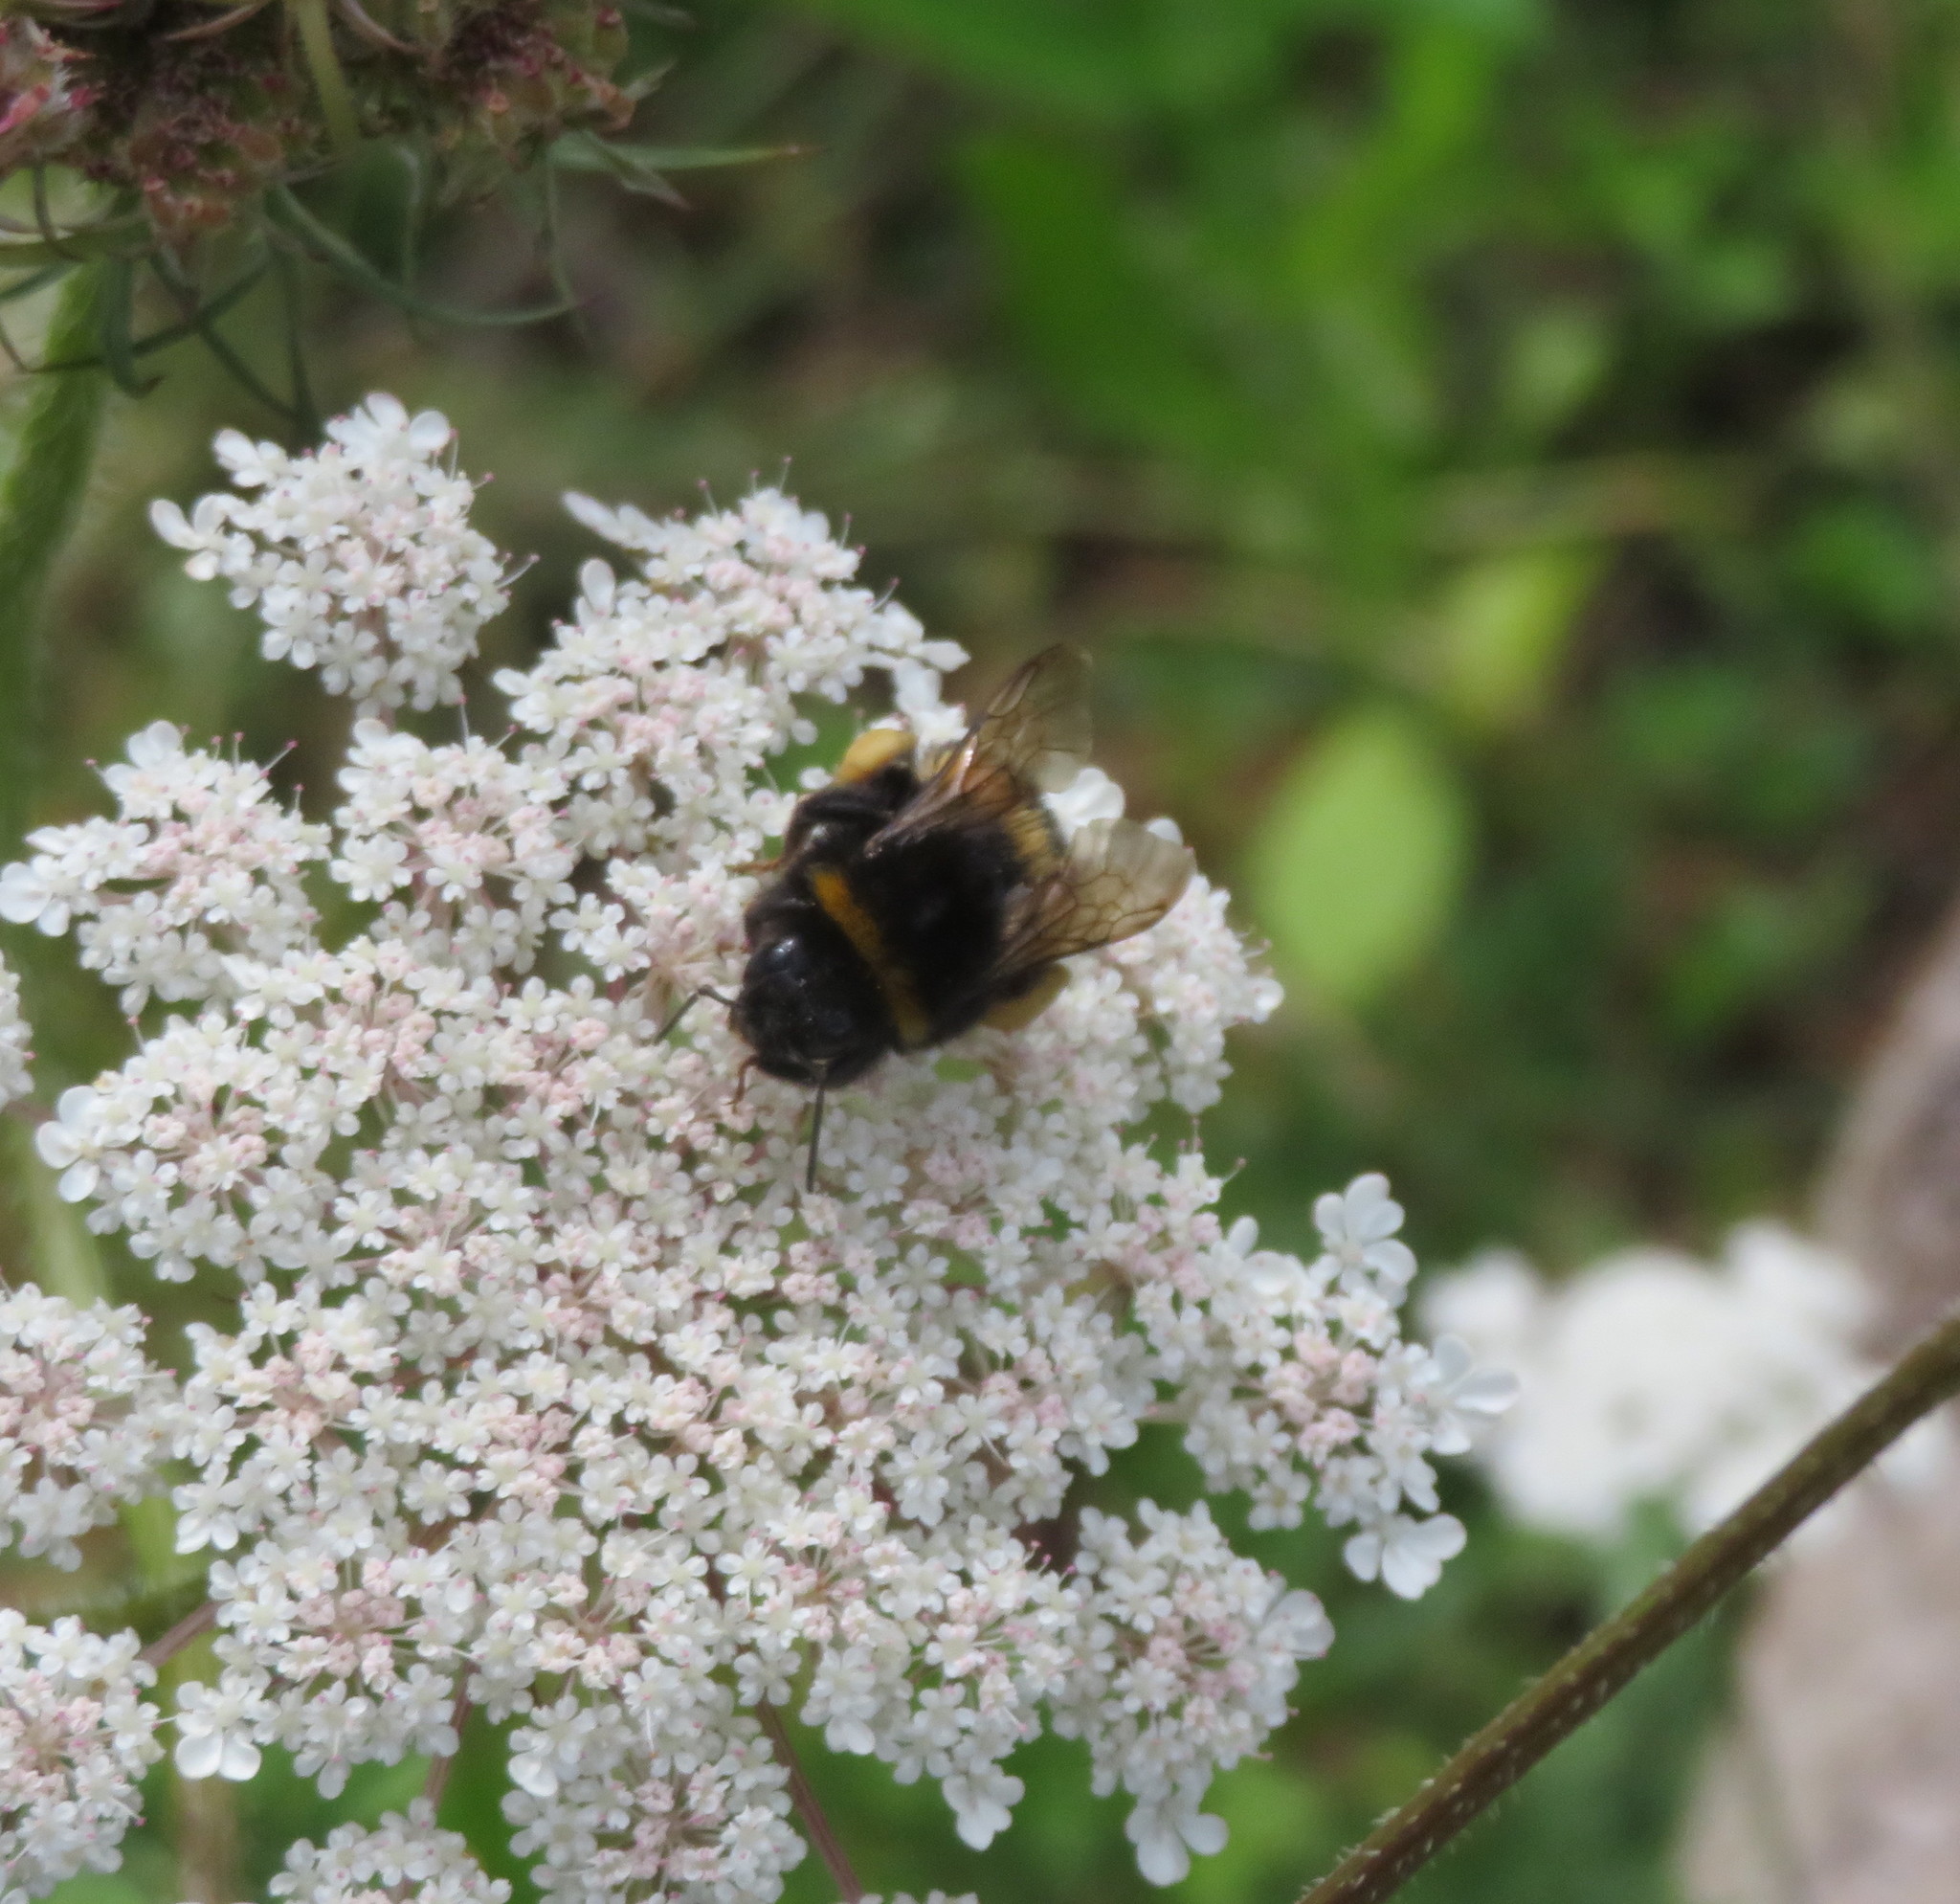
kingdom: Animalia
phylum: Arthropoda
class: Insecta
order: Hymenoptera
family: Apidae
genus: Bombus
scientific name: Bombus terrestris
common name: Buff-tailed bumblebee
